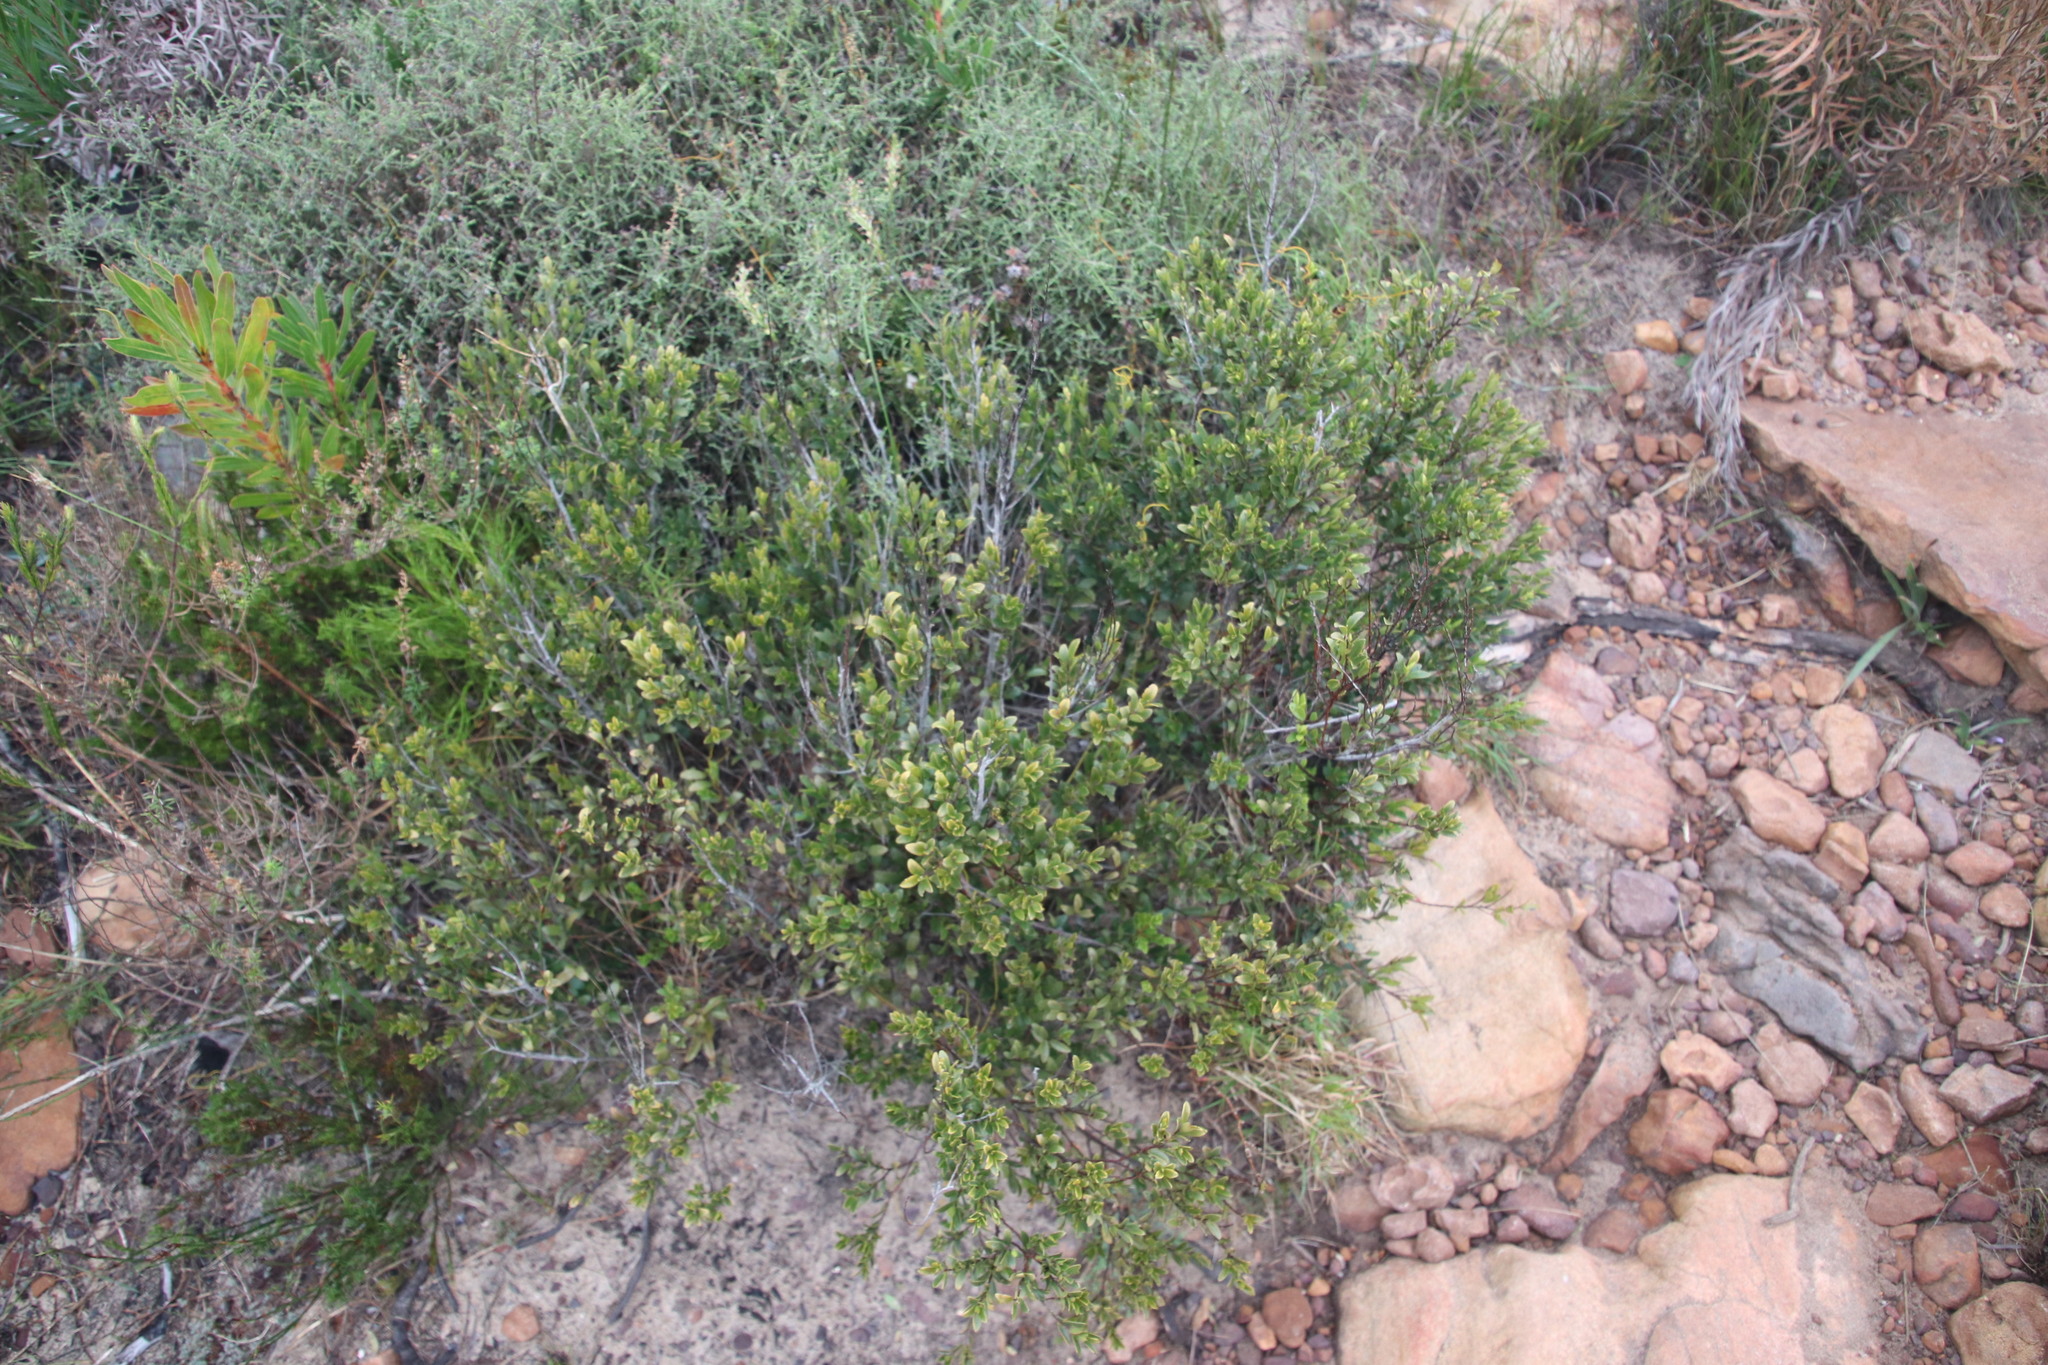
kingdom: Plantae
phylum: Tracheophyta
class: Magnoliopsida
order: Ericales
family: Ebenaceae
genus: Diospyros
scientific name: Diospyros glabra
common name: Fynbos star apple
